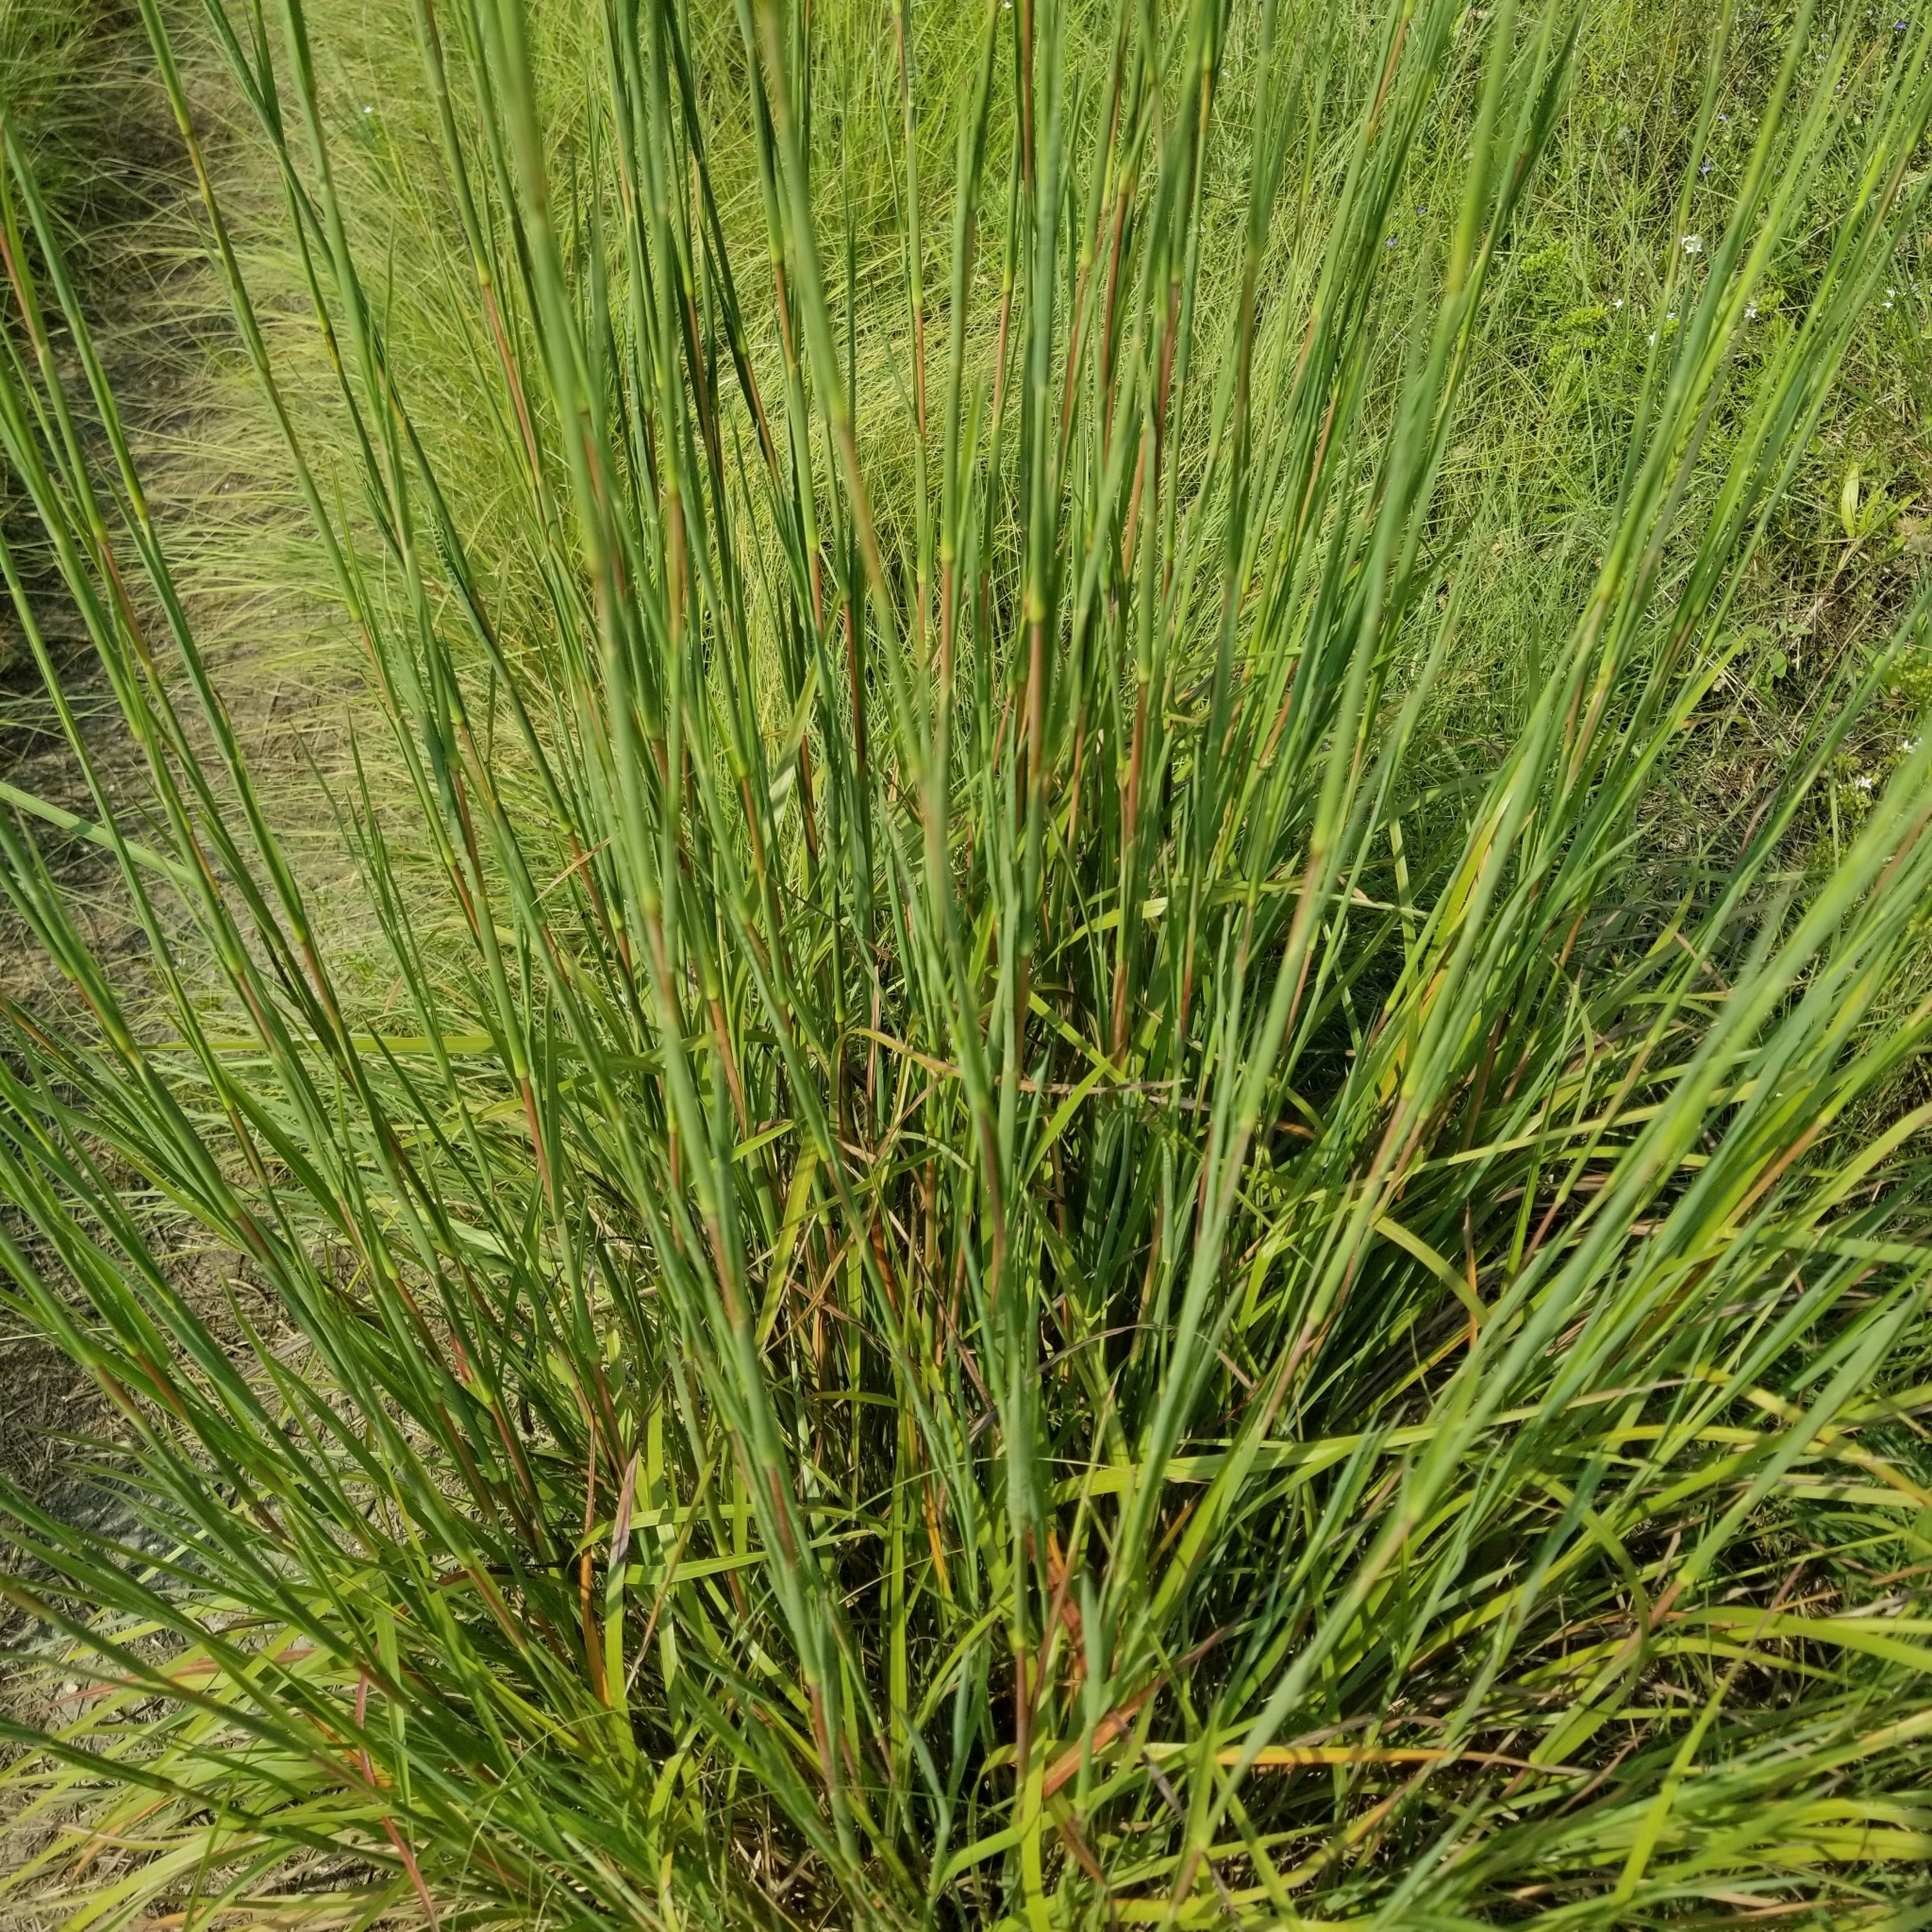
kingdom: Plantae
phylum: Tracheophyta
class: Liliopsida
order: Poales
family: Poaceae
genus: Schizachyrium
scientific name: Schizachyrium scoparium
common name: Little bluestem
